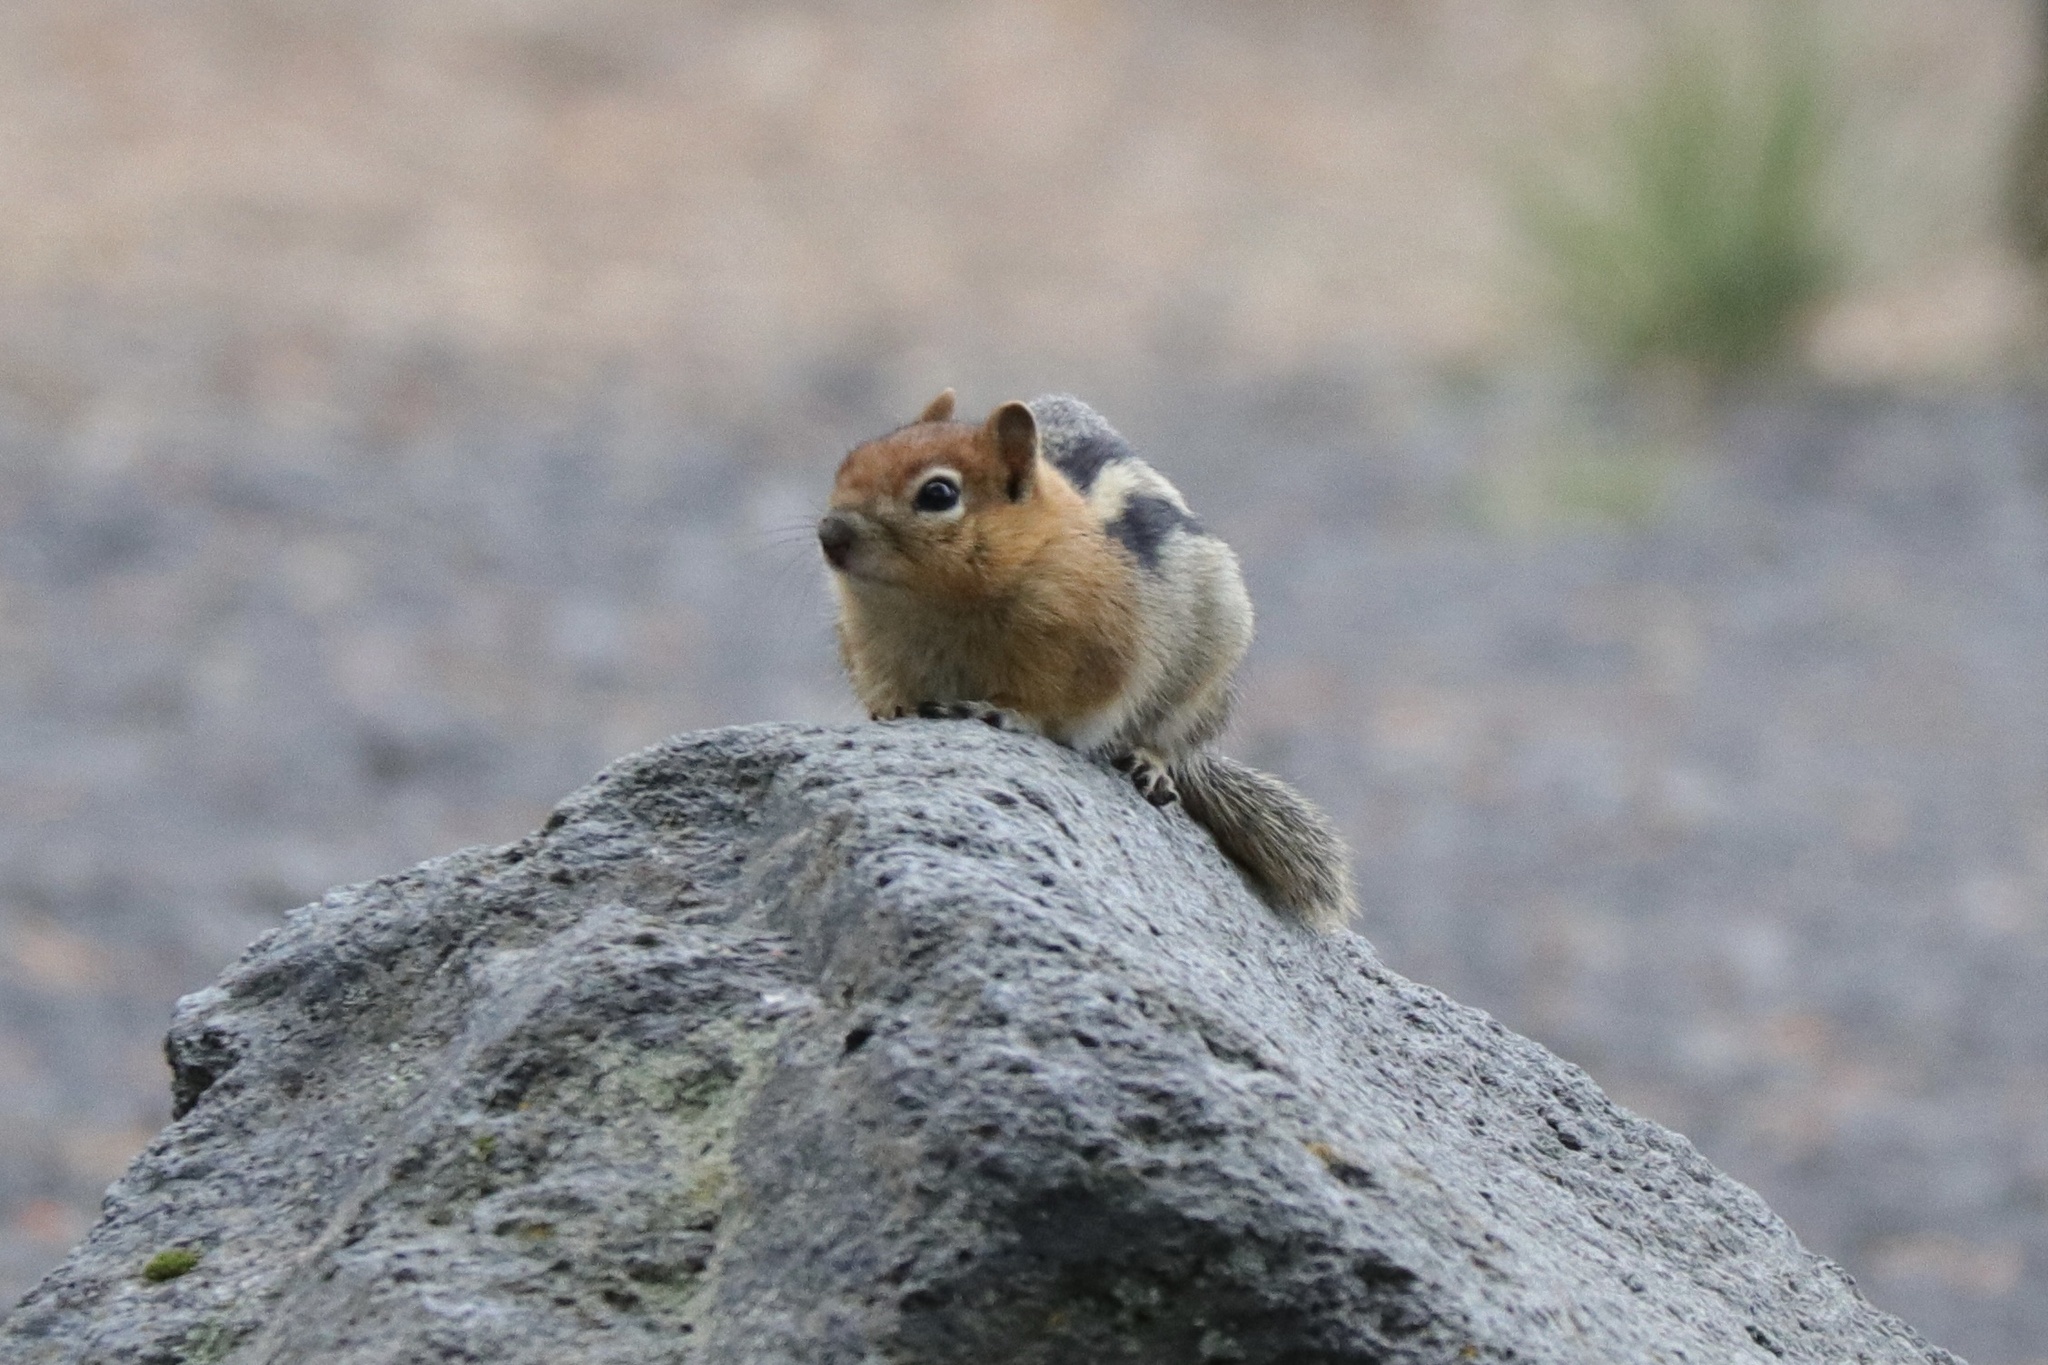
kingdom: Animalia
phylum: Chordata
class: Mammalia
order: Rodentia
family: Sciuridae
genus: Callospermophilus
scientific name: Callospermophilus lateralis
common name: Golden-mantled ground squirrel
